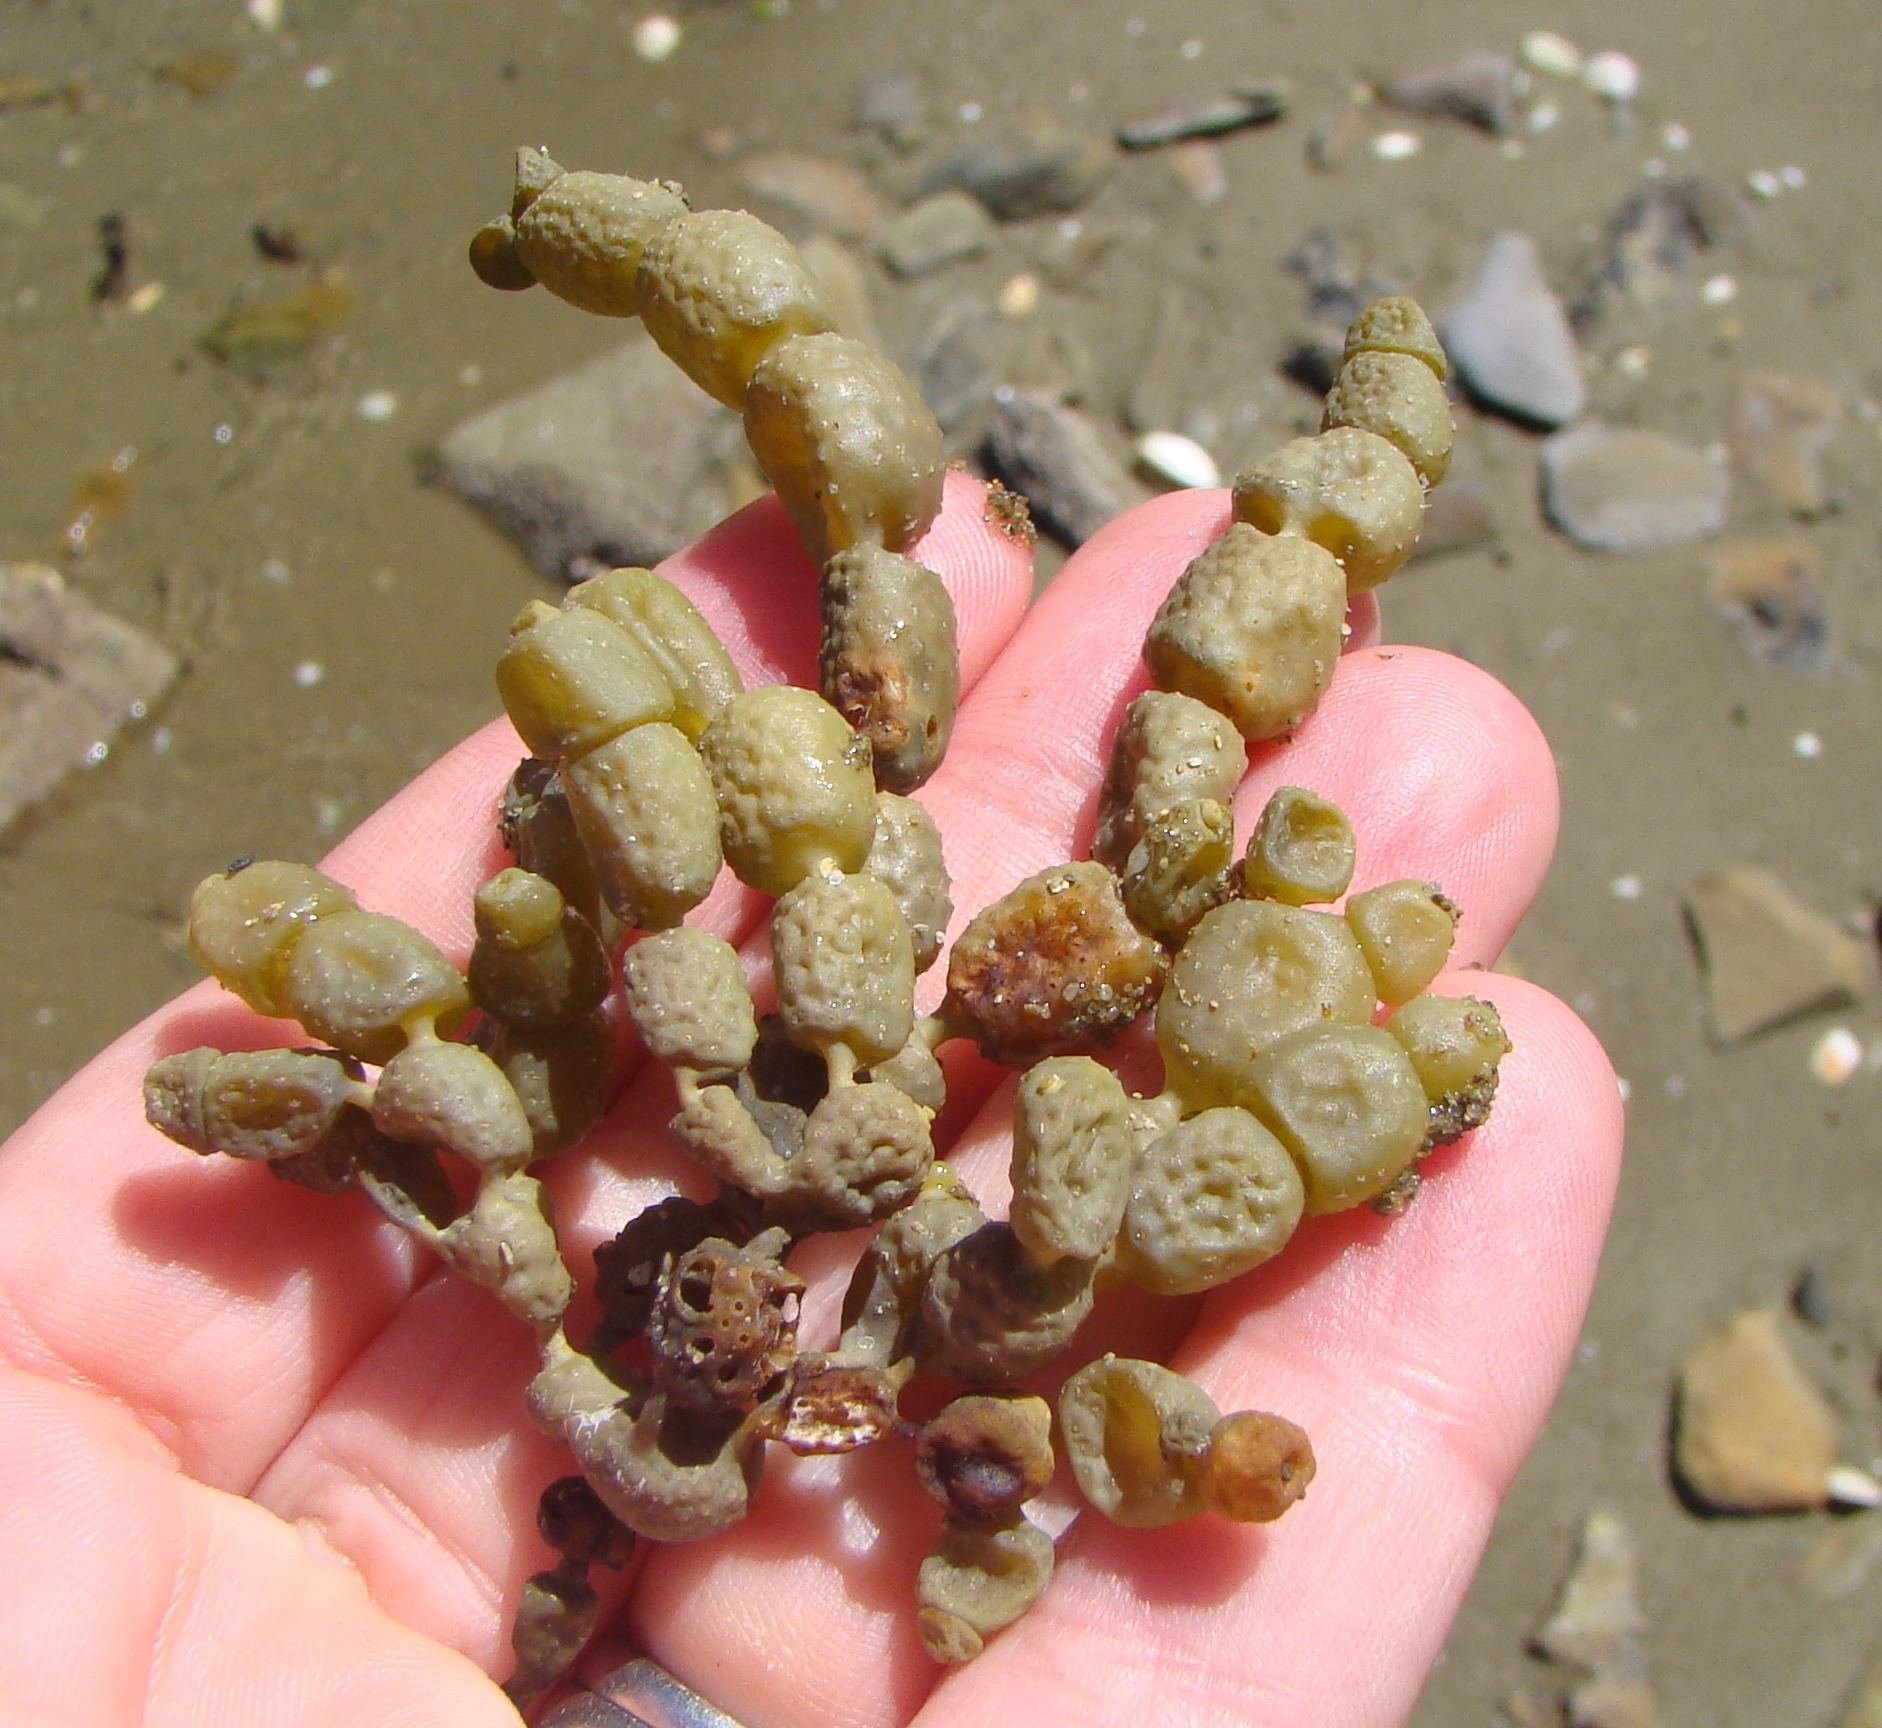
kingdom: Chromista
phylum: Ochrophyta
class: Phaeophyceae
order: Fucales
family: Hormosiraceae
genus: Hormosira
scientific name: Hormosira banksii
